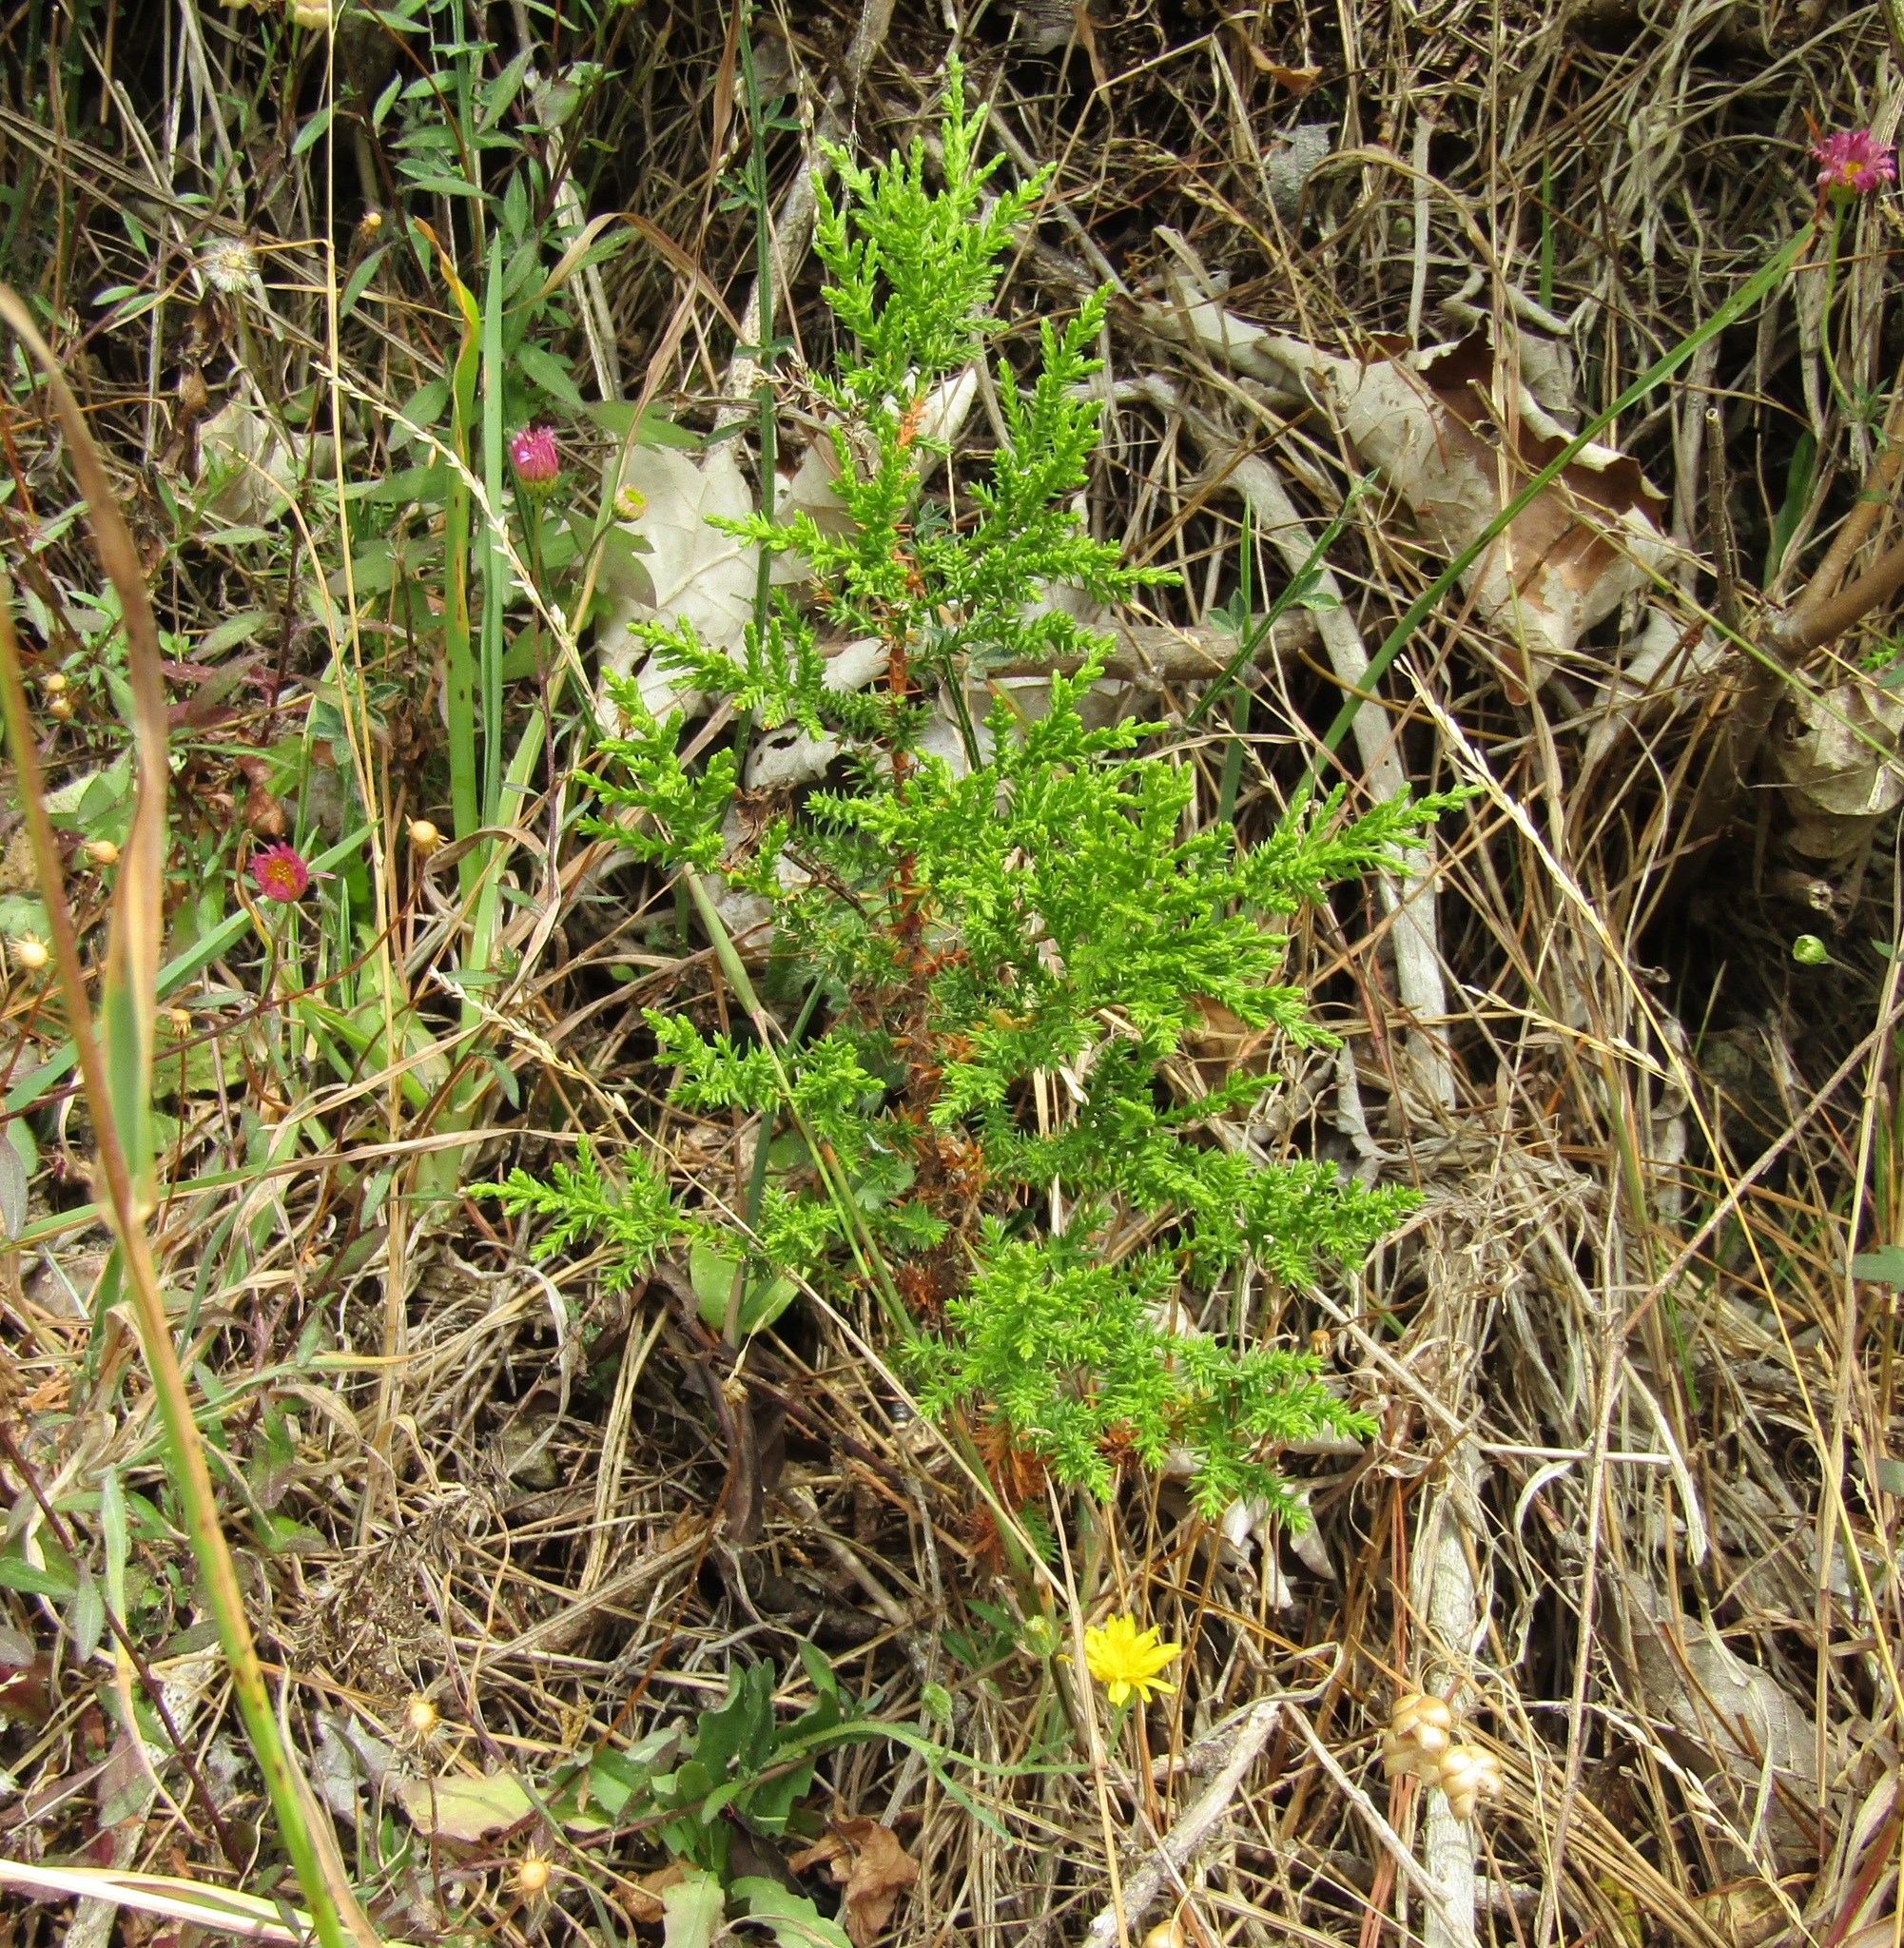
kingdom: Plantae
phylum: Tracheophyta
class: Pinopsida
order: Pinales
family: Cupressaceae
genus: Cupressus
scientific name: Cupressus macrocarpa
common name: Monterey cypress
